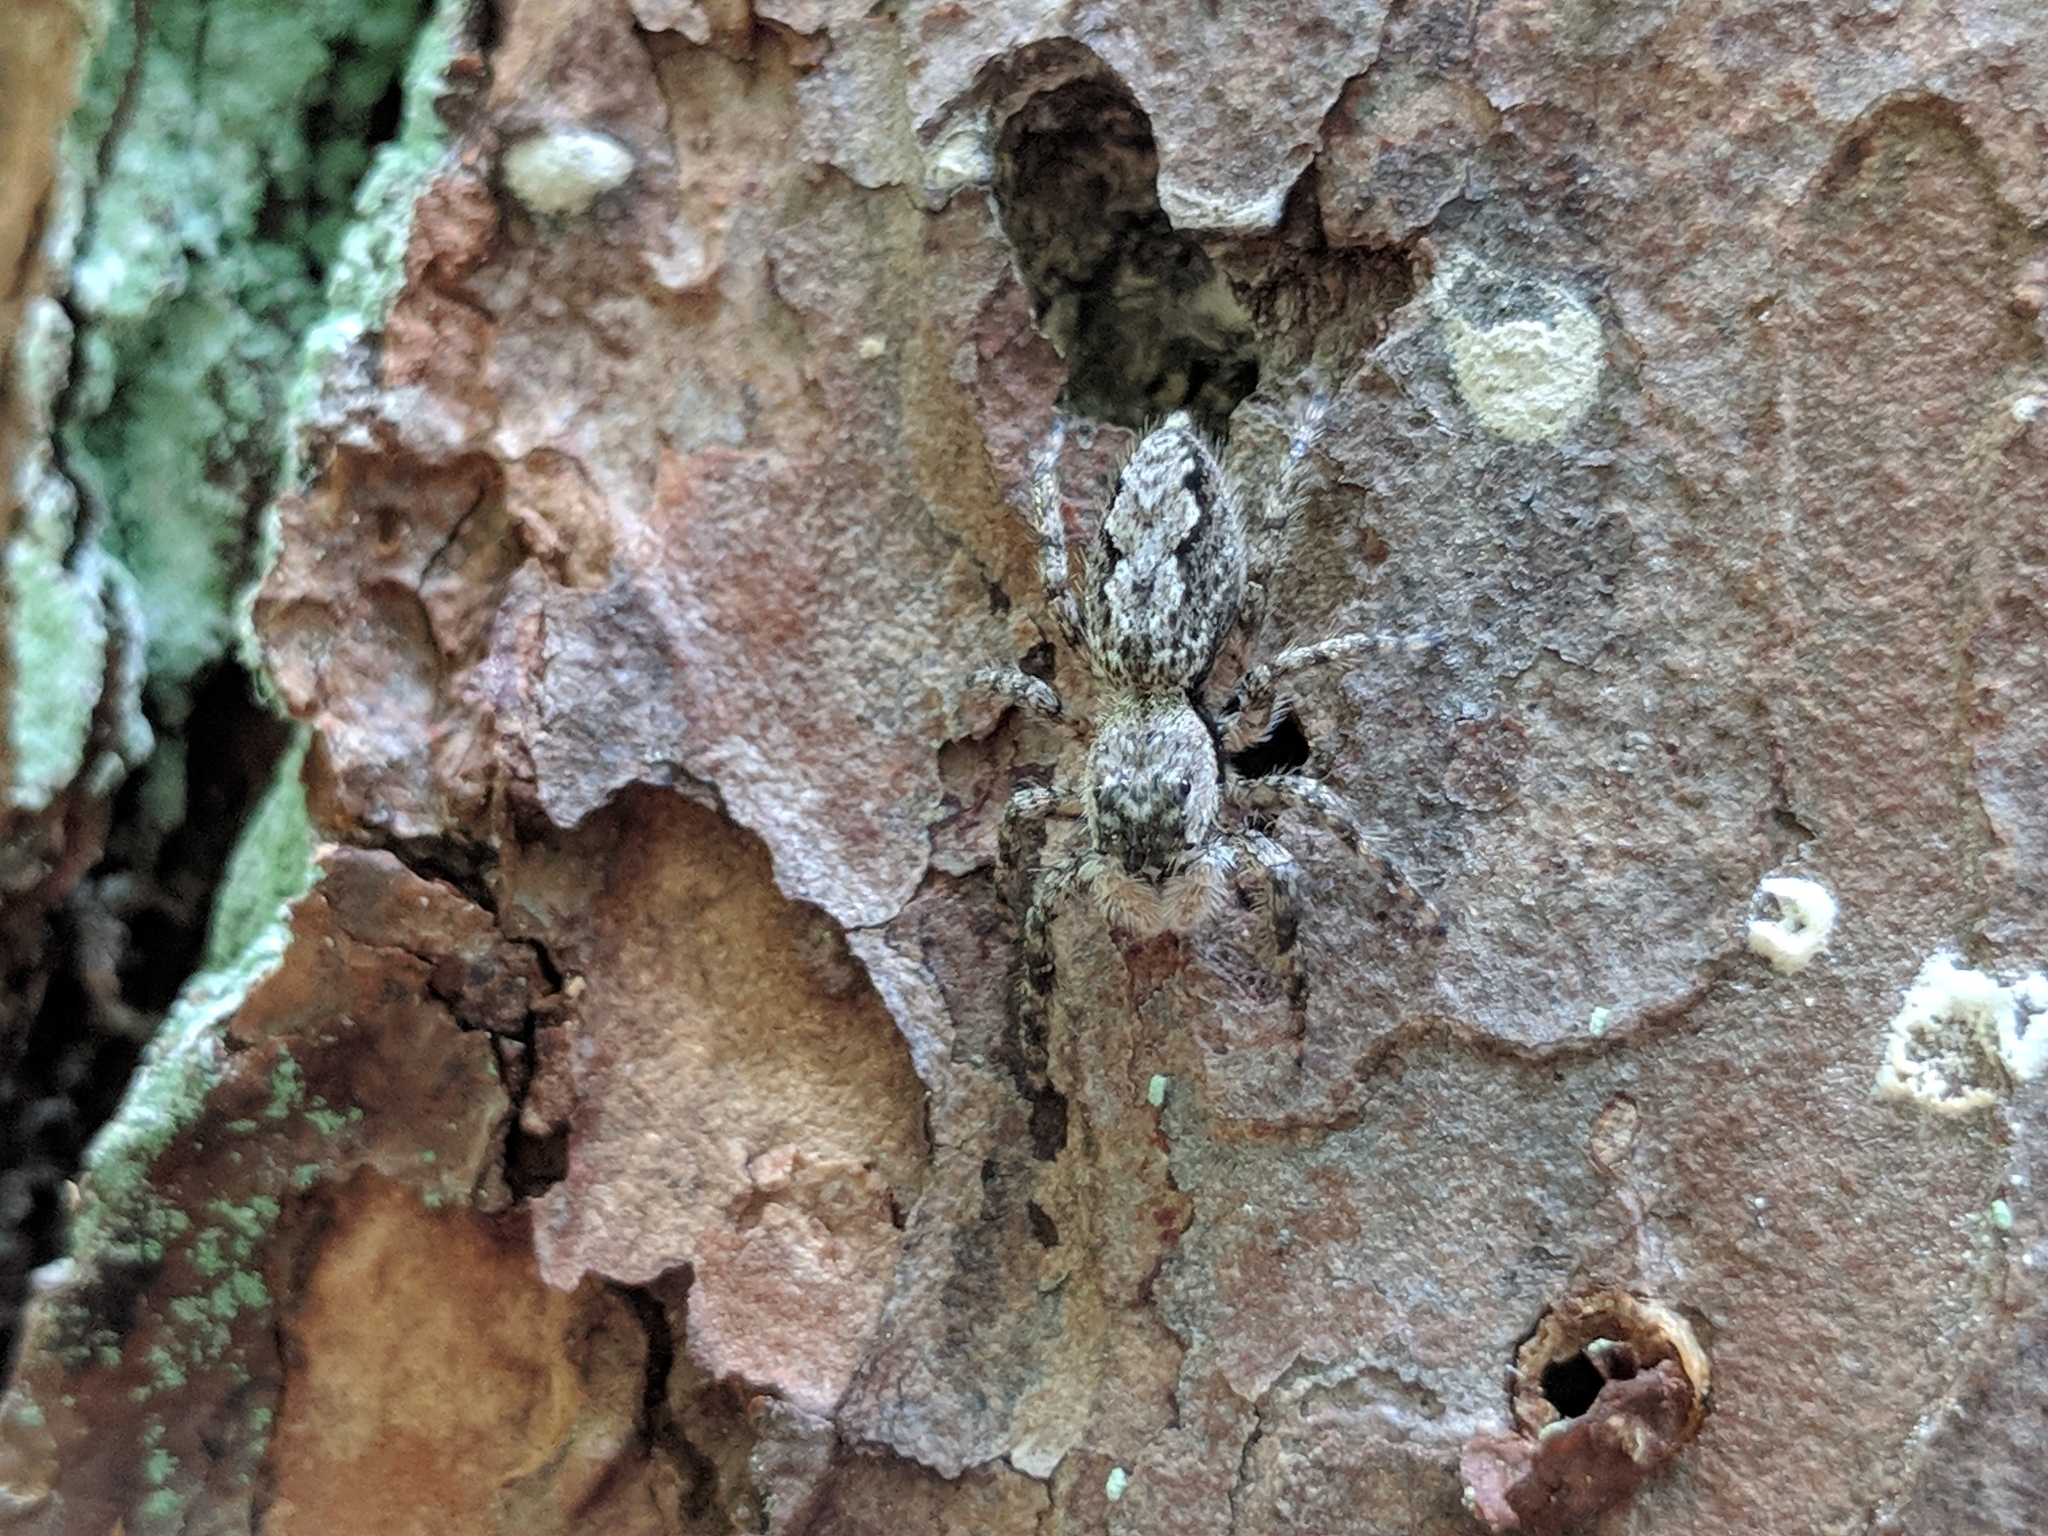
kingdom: Animalia
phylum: Arthropoda
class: Arachnida
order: Araneae
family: Salticidae
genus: Platycryptus
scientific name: Platycryptus undatus
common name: Tan jumping spider
